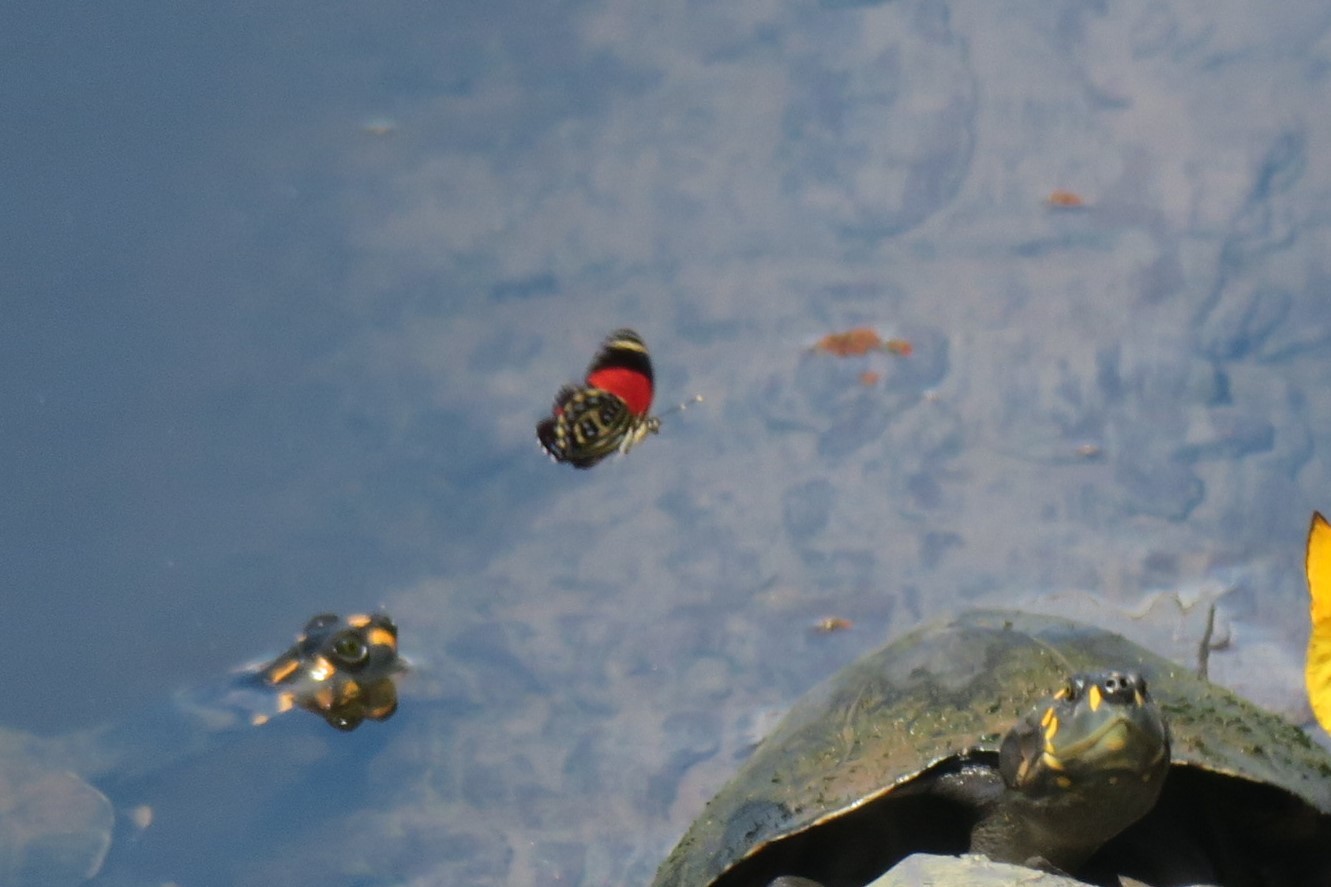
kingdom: Animalia
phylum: Arthropoda
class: Insecta
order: Lepidoptera
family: Nymphalidae
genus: Catagramma
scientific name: Catagramma pygas
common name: Godart's numberwing
